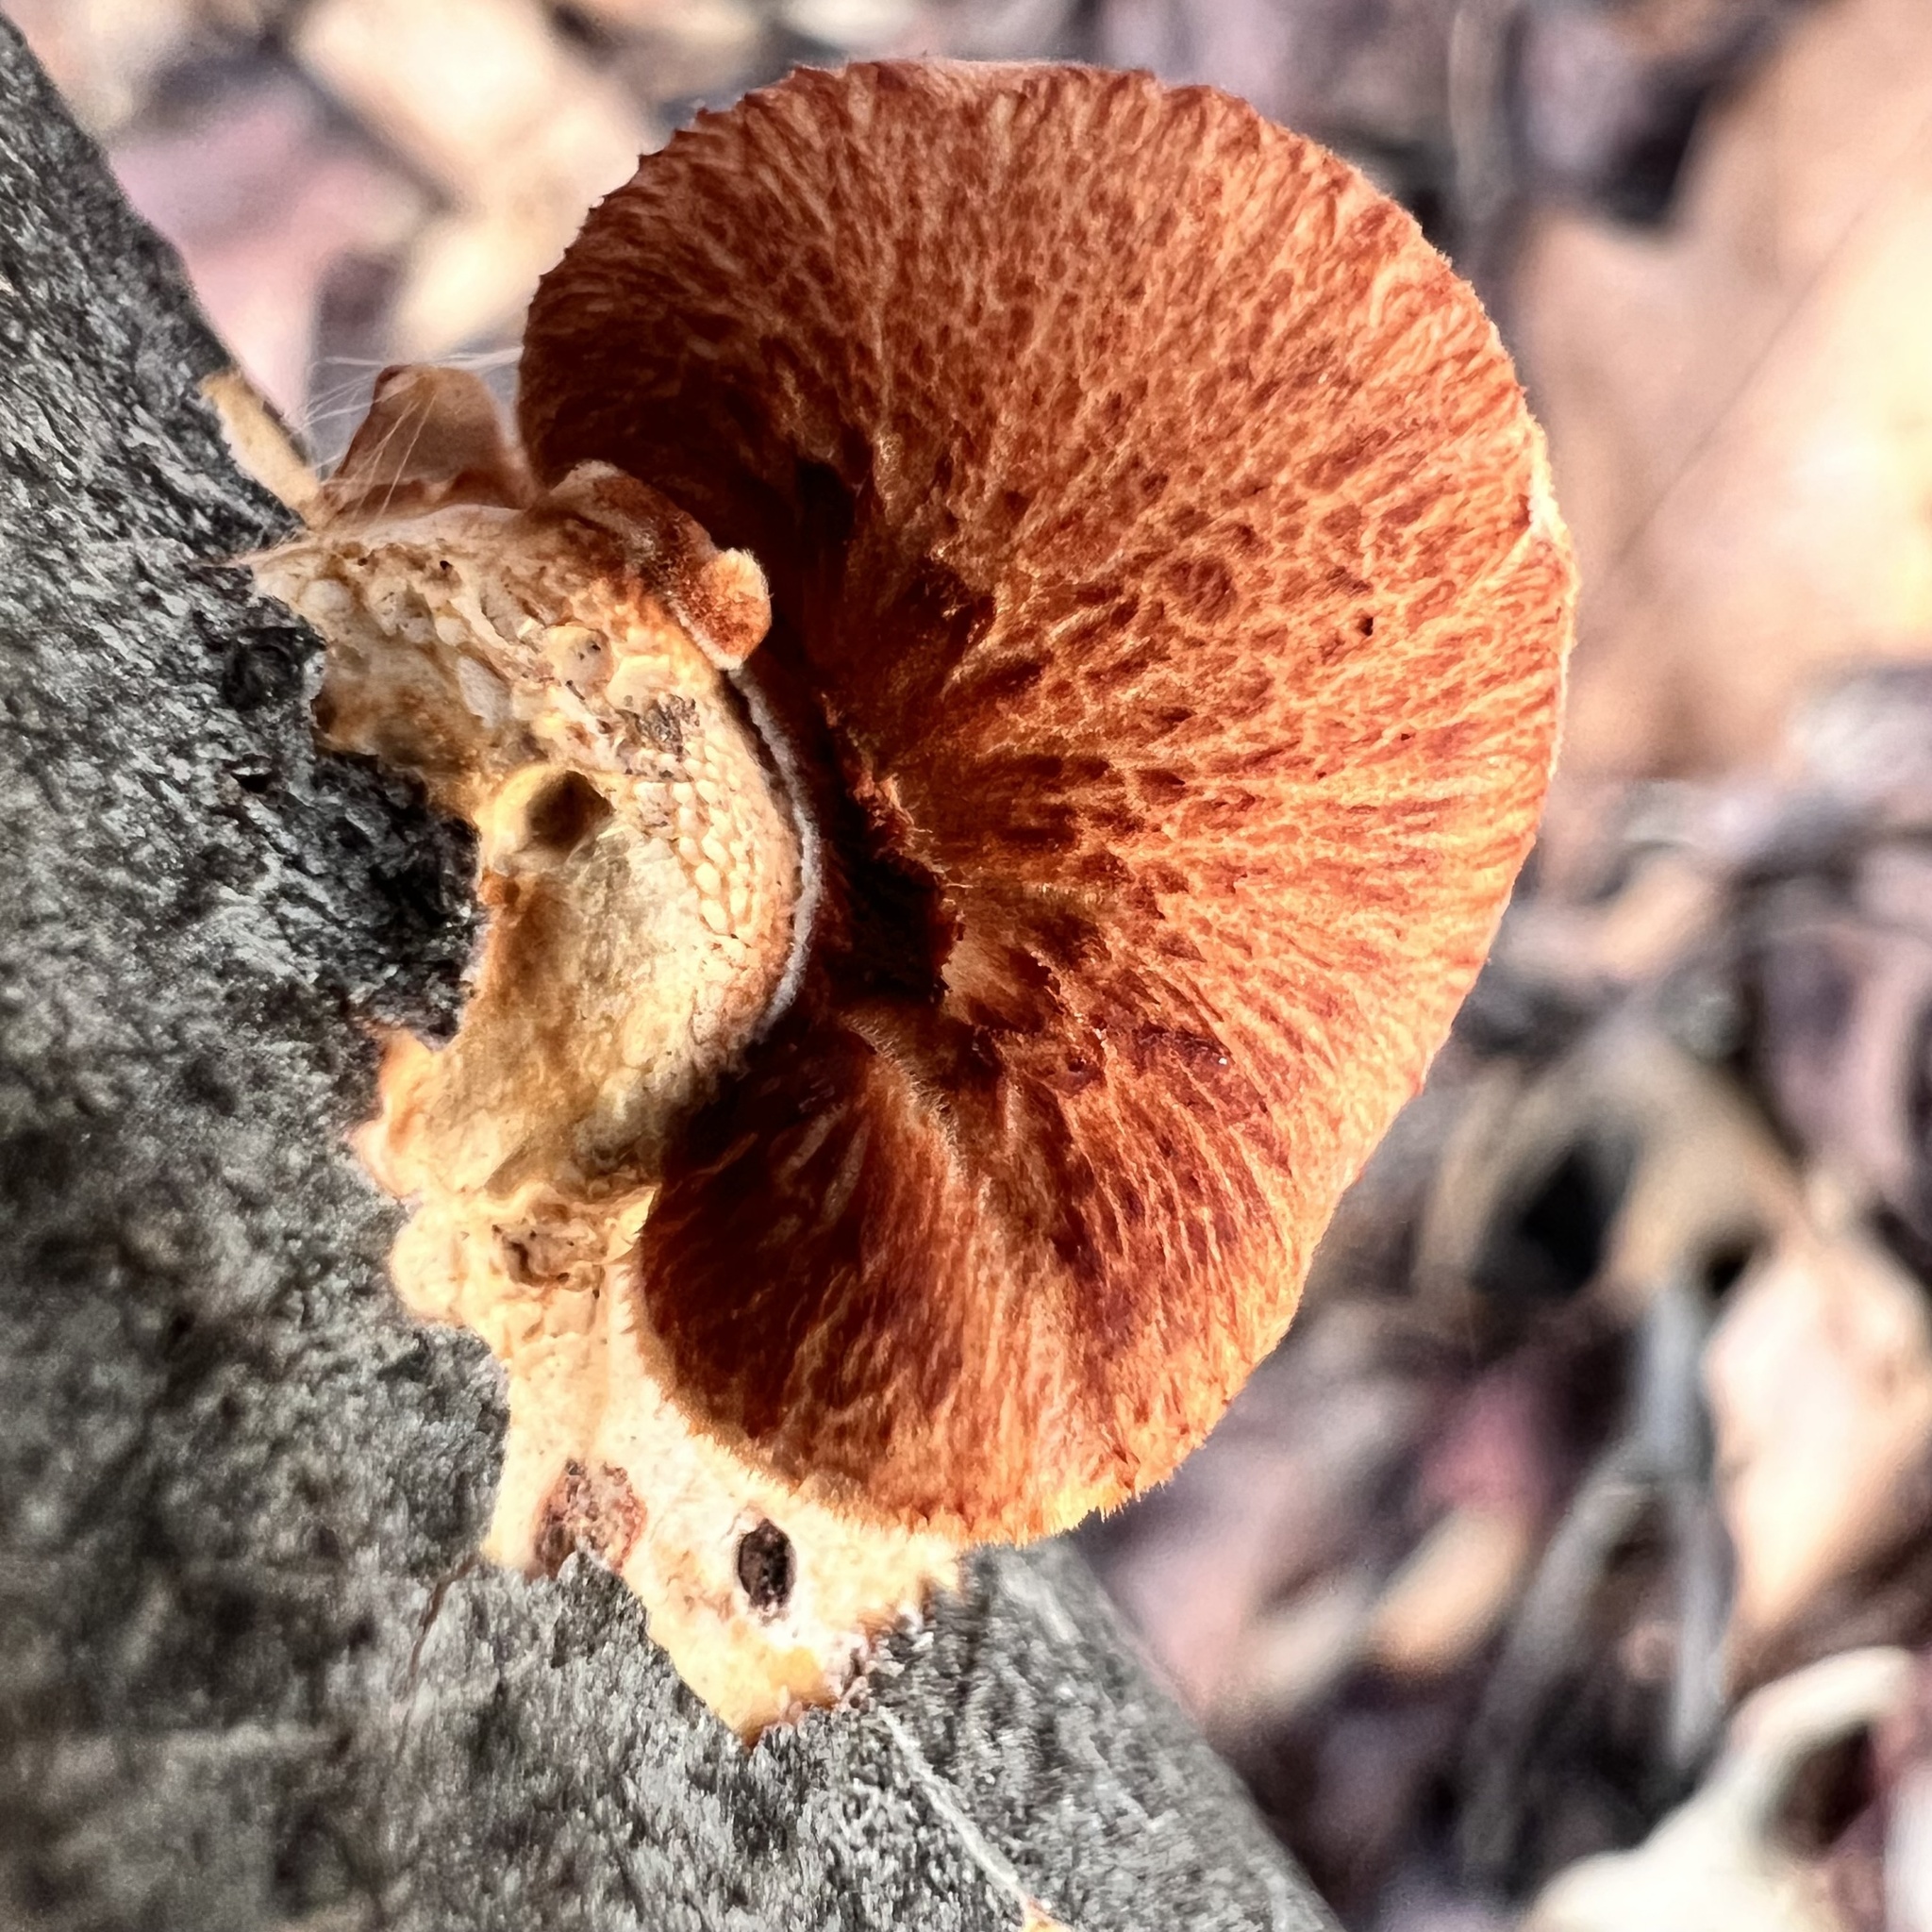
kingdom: Fungi
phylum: Basidiomycota
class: Agaricomycetes
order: Polyporales
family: Polyporaceae
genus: Neofavolus
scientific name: Neofavolus alveolaris
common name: Hexagonal-pored polypore
